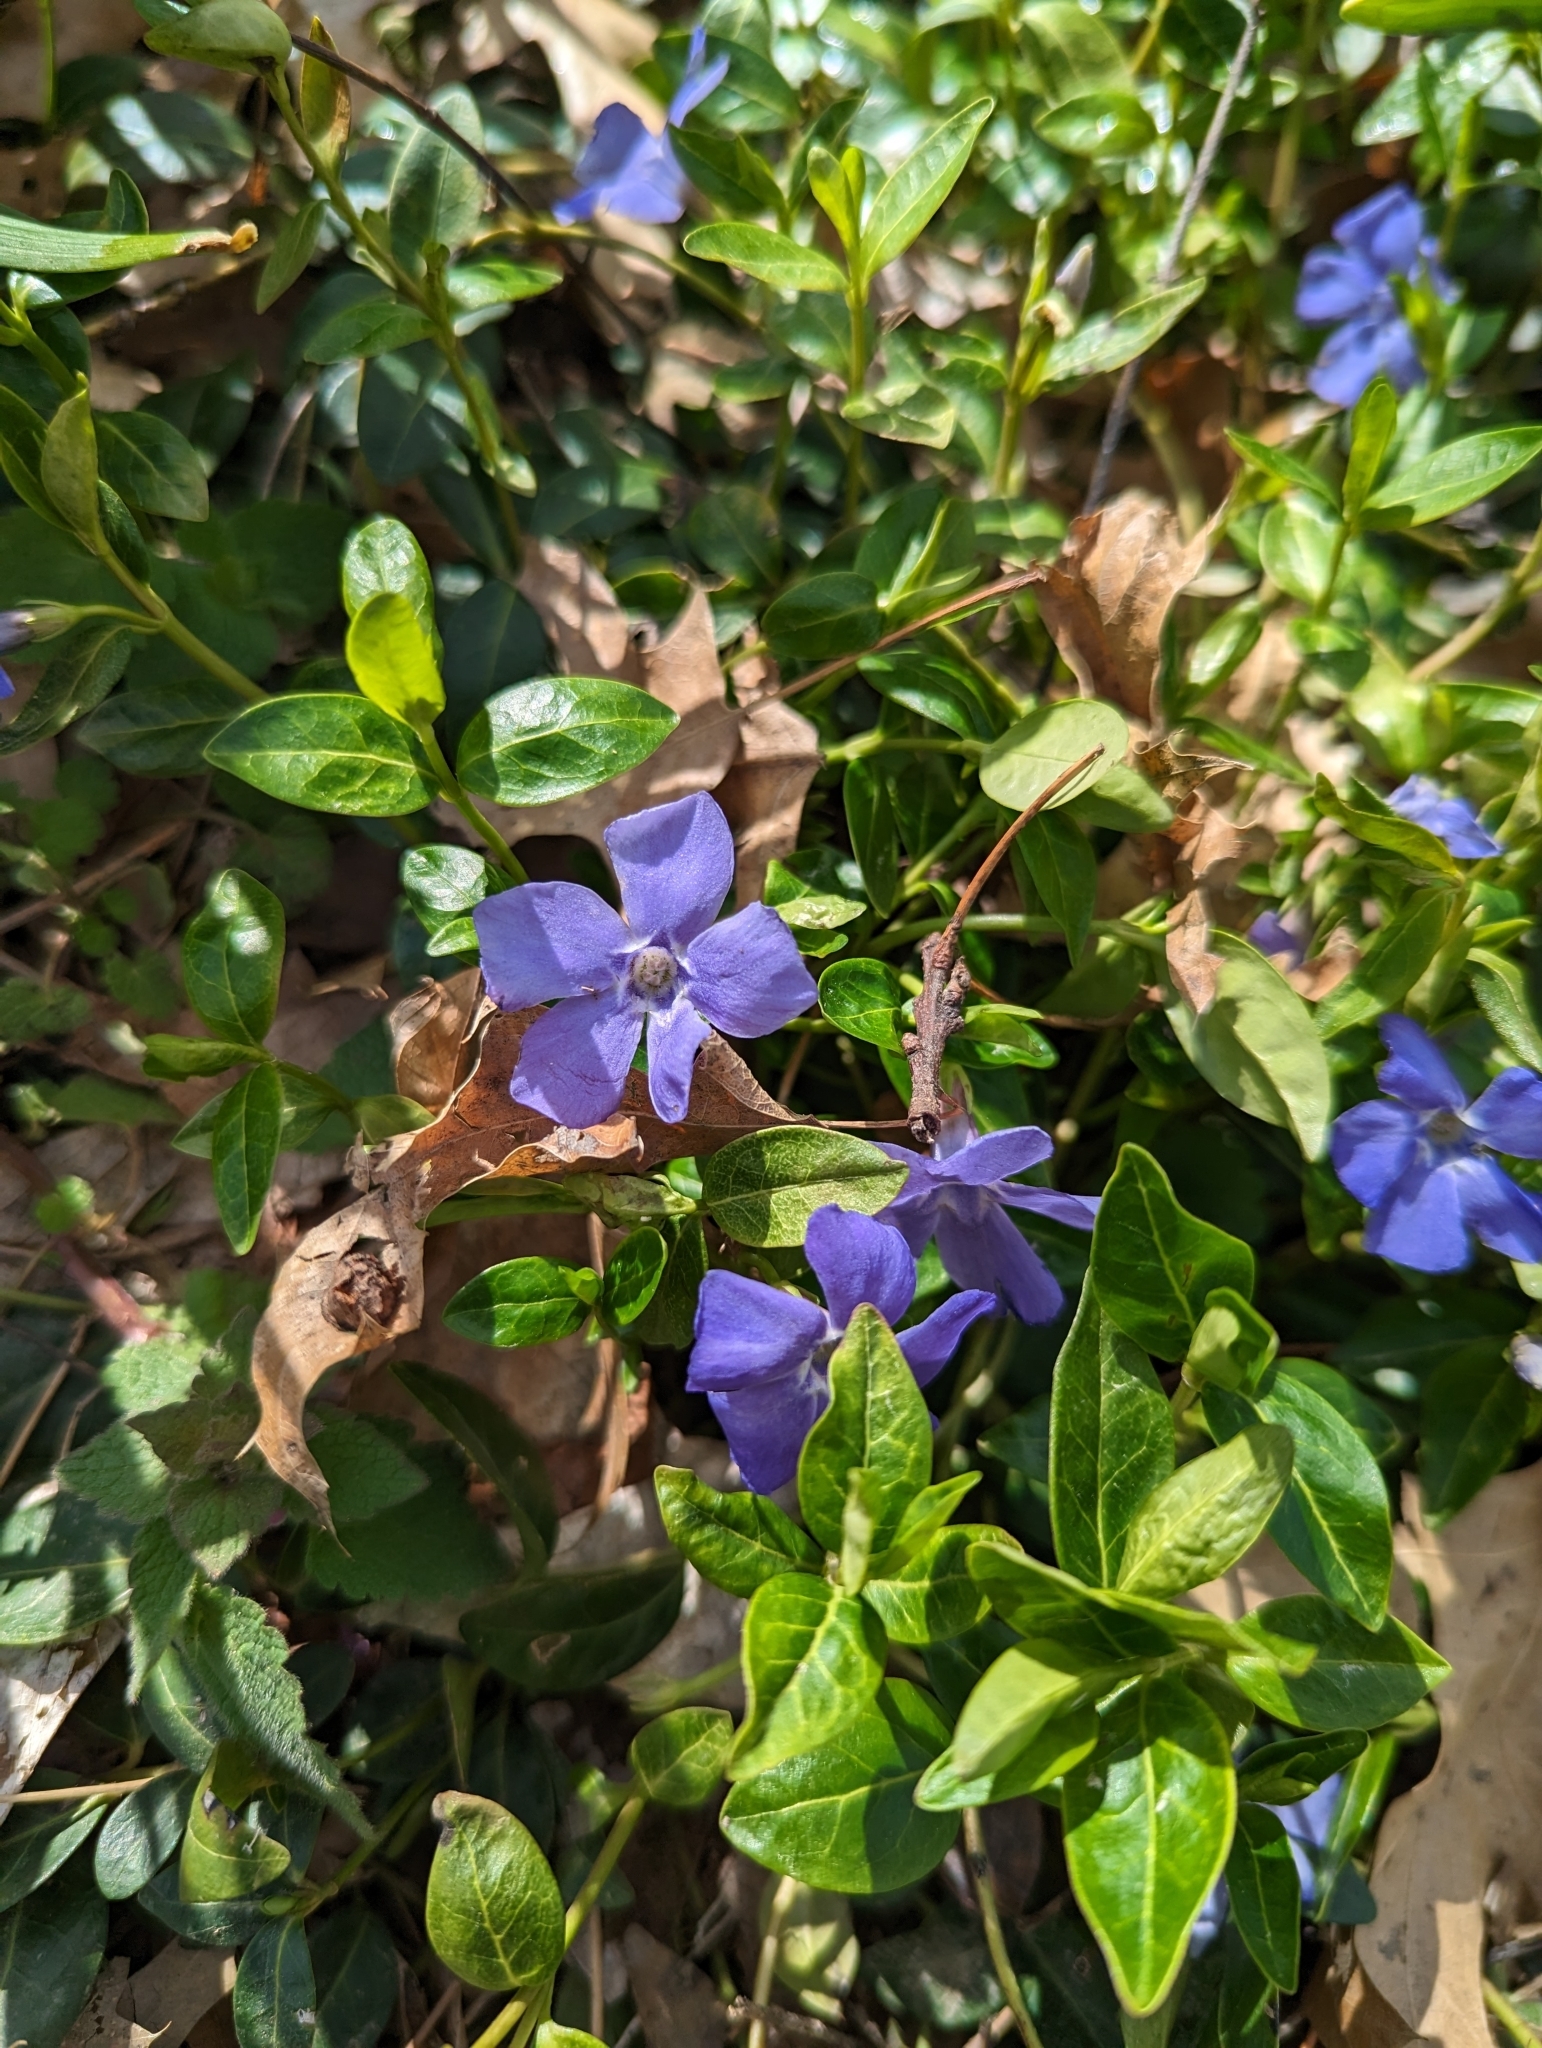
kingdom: Plantae
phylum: Tracheophyta
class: Magnoliopsida
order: Gentianales
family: Apocynaceae
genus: Vinca
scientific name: Vinca minor
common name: Lesser periwinkle
